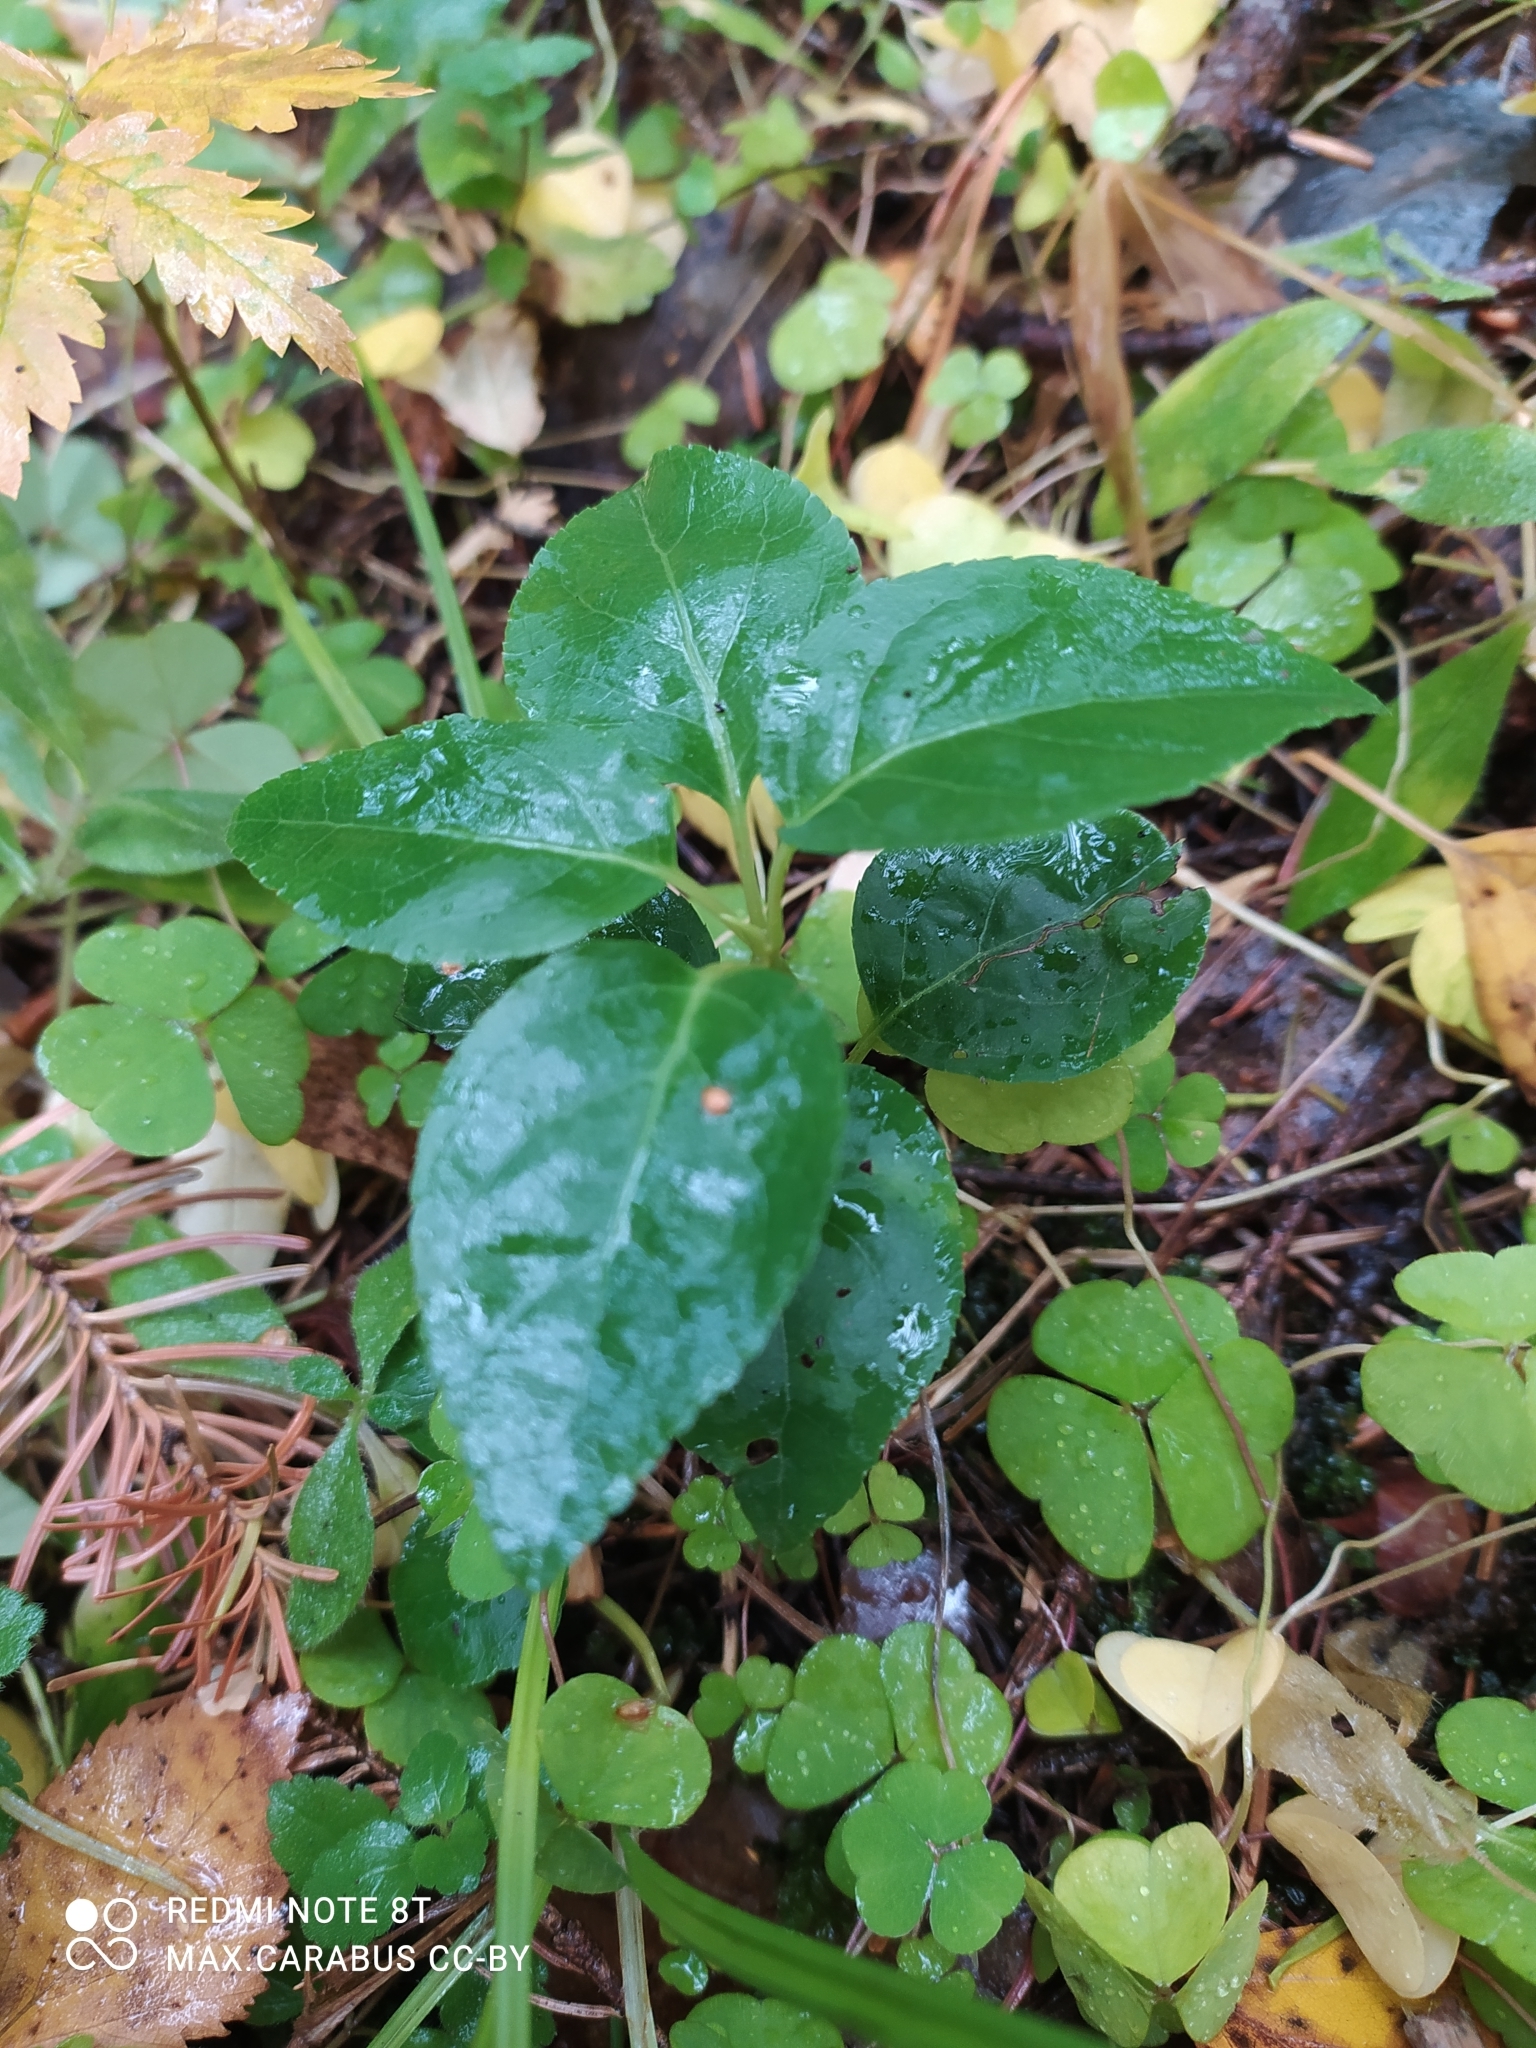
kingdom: Plantae
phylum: Tracheophyta
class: Magnoliopsida
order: Ericales
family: Ericaceae
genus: Orthilia
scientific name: Orthilia secunda
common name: One-sided orthilia
